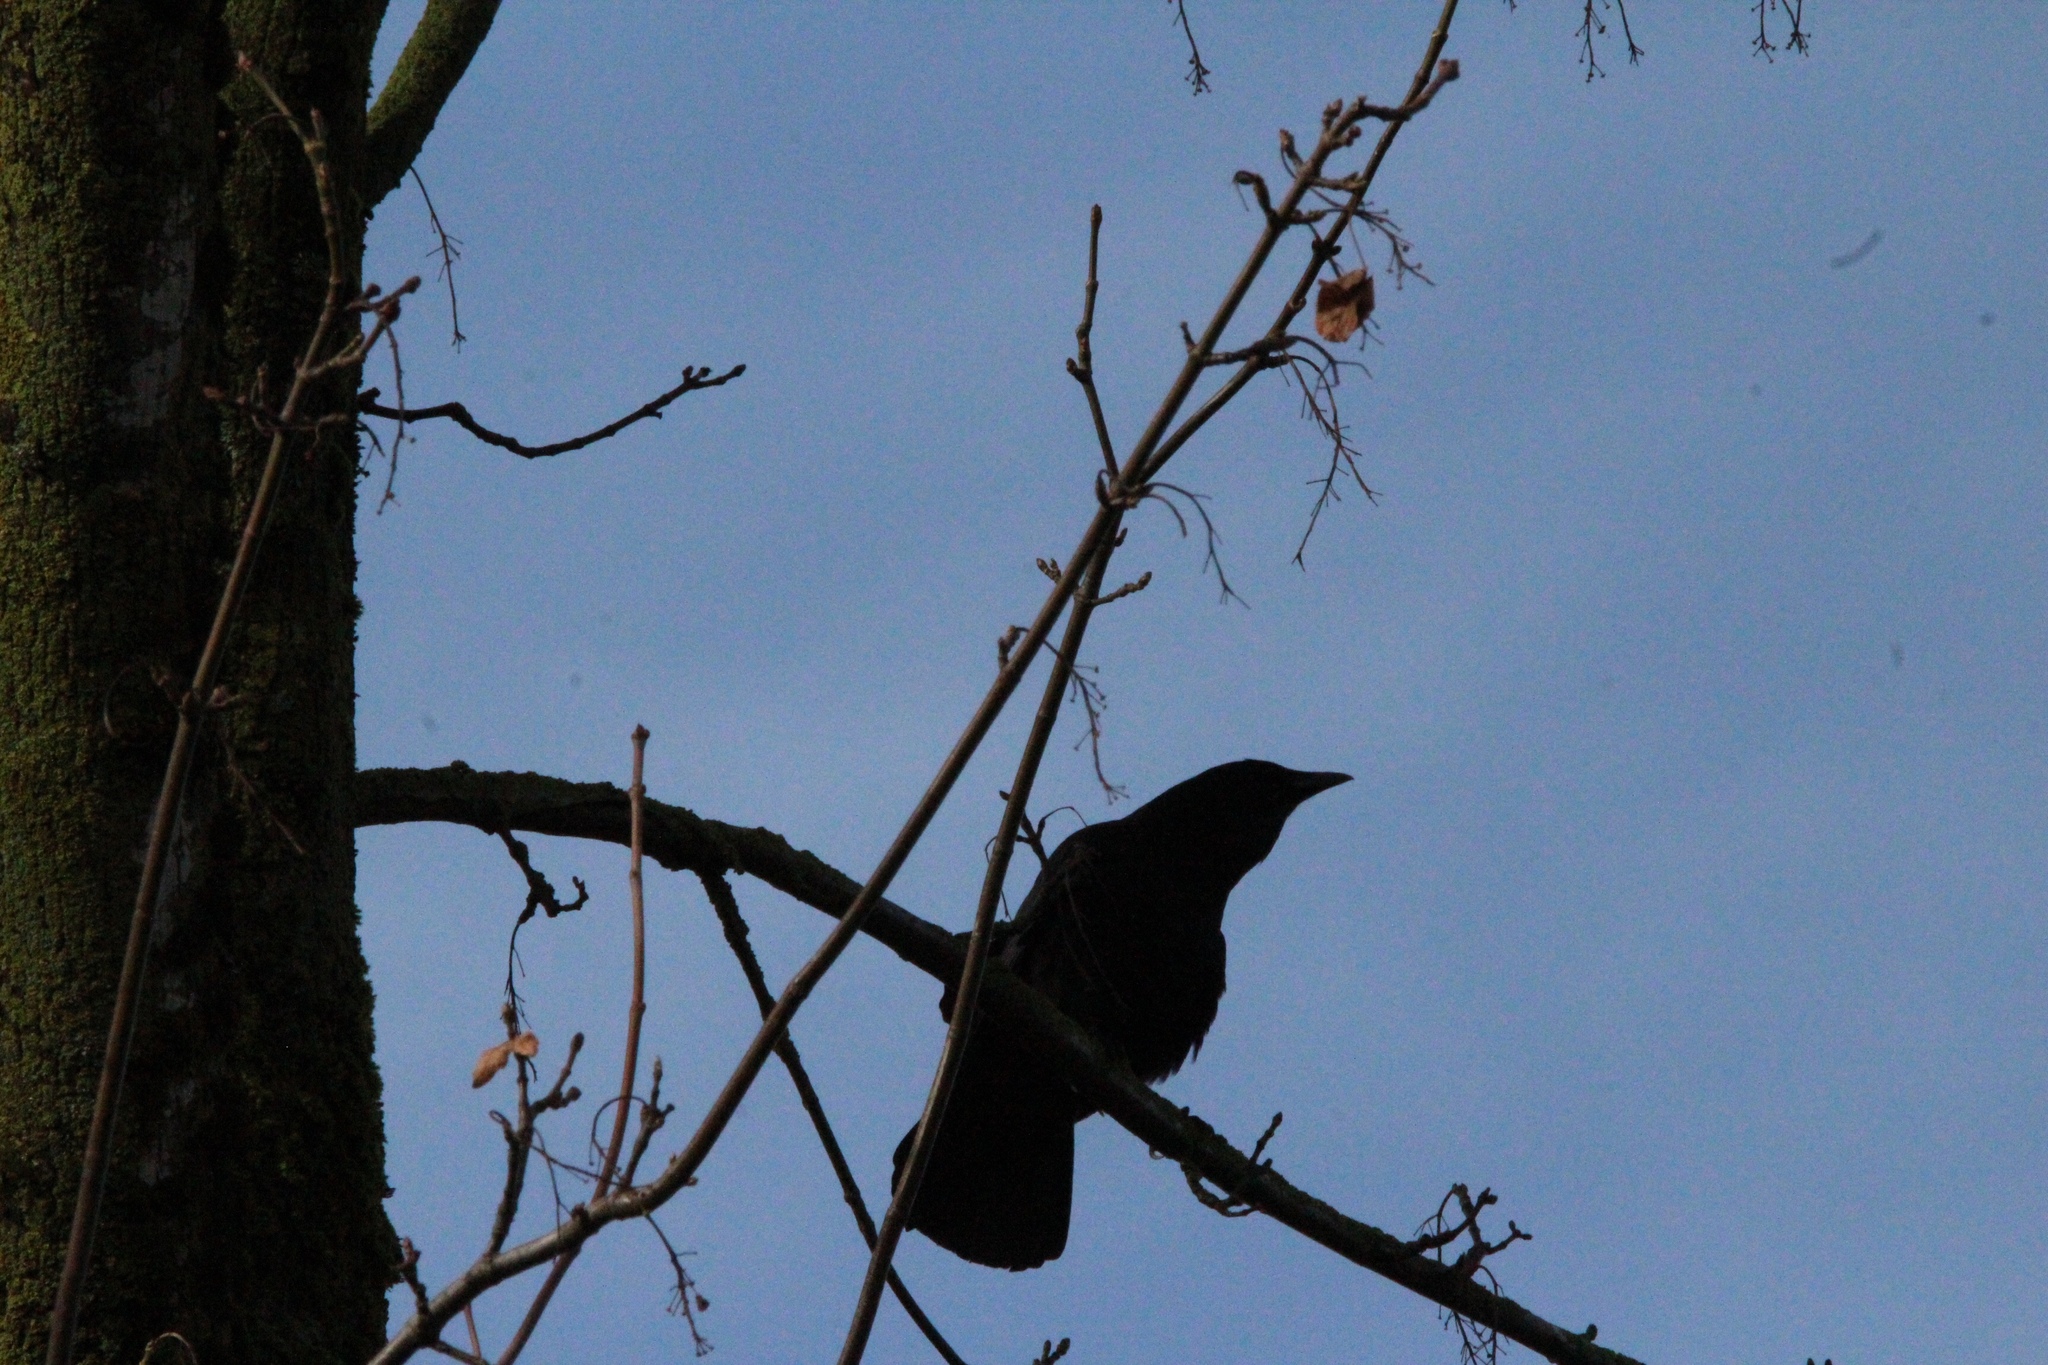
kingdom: Animalia
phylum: Chordata
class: Aves
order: Passeriformes
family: Corvidae
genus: Corvus
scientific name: Corvus brachyrhynchos
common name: American crow
